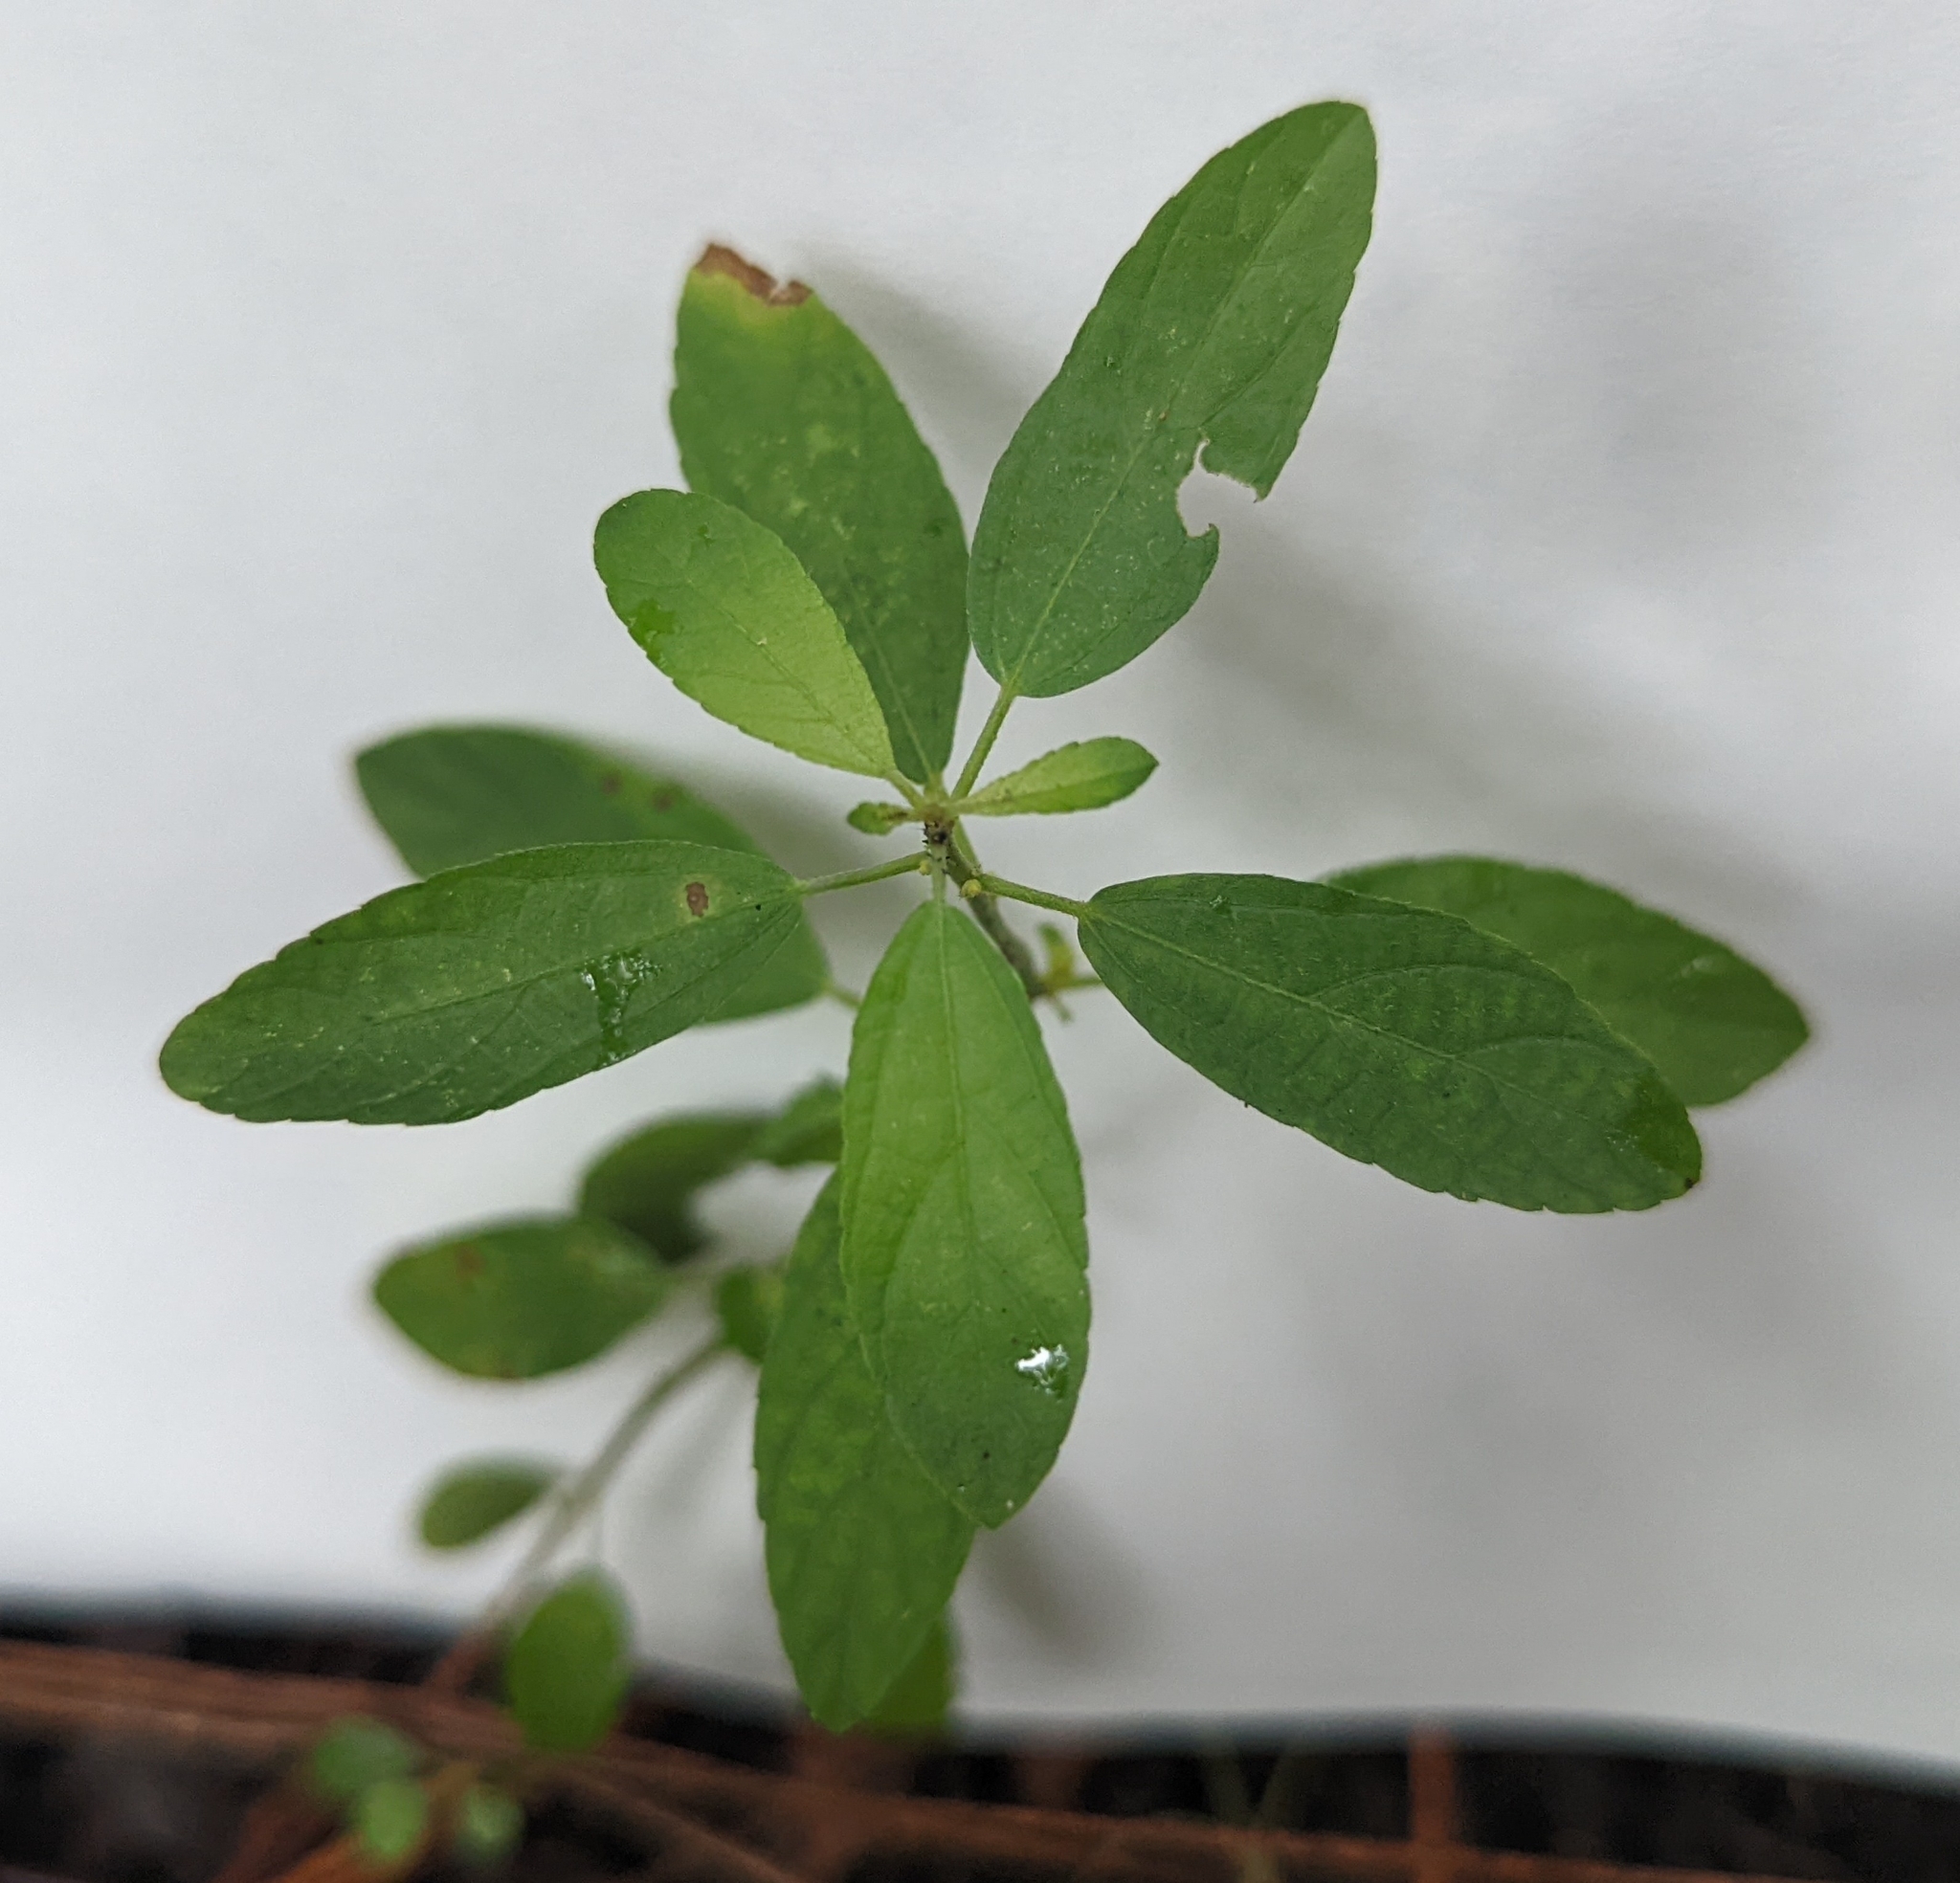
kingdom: Plantae
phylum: Tracheophyta
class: Magnoliopsida
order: Malpighiales
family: Euphorbiaceae
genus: Acalypha
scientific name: Acalypha gracilens
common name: Slender three-seeded mercury
